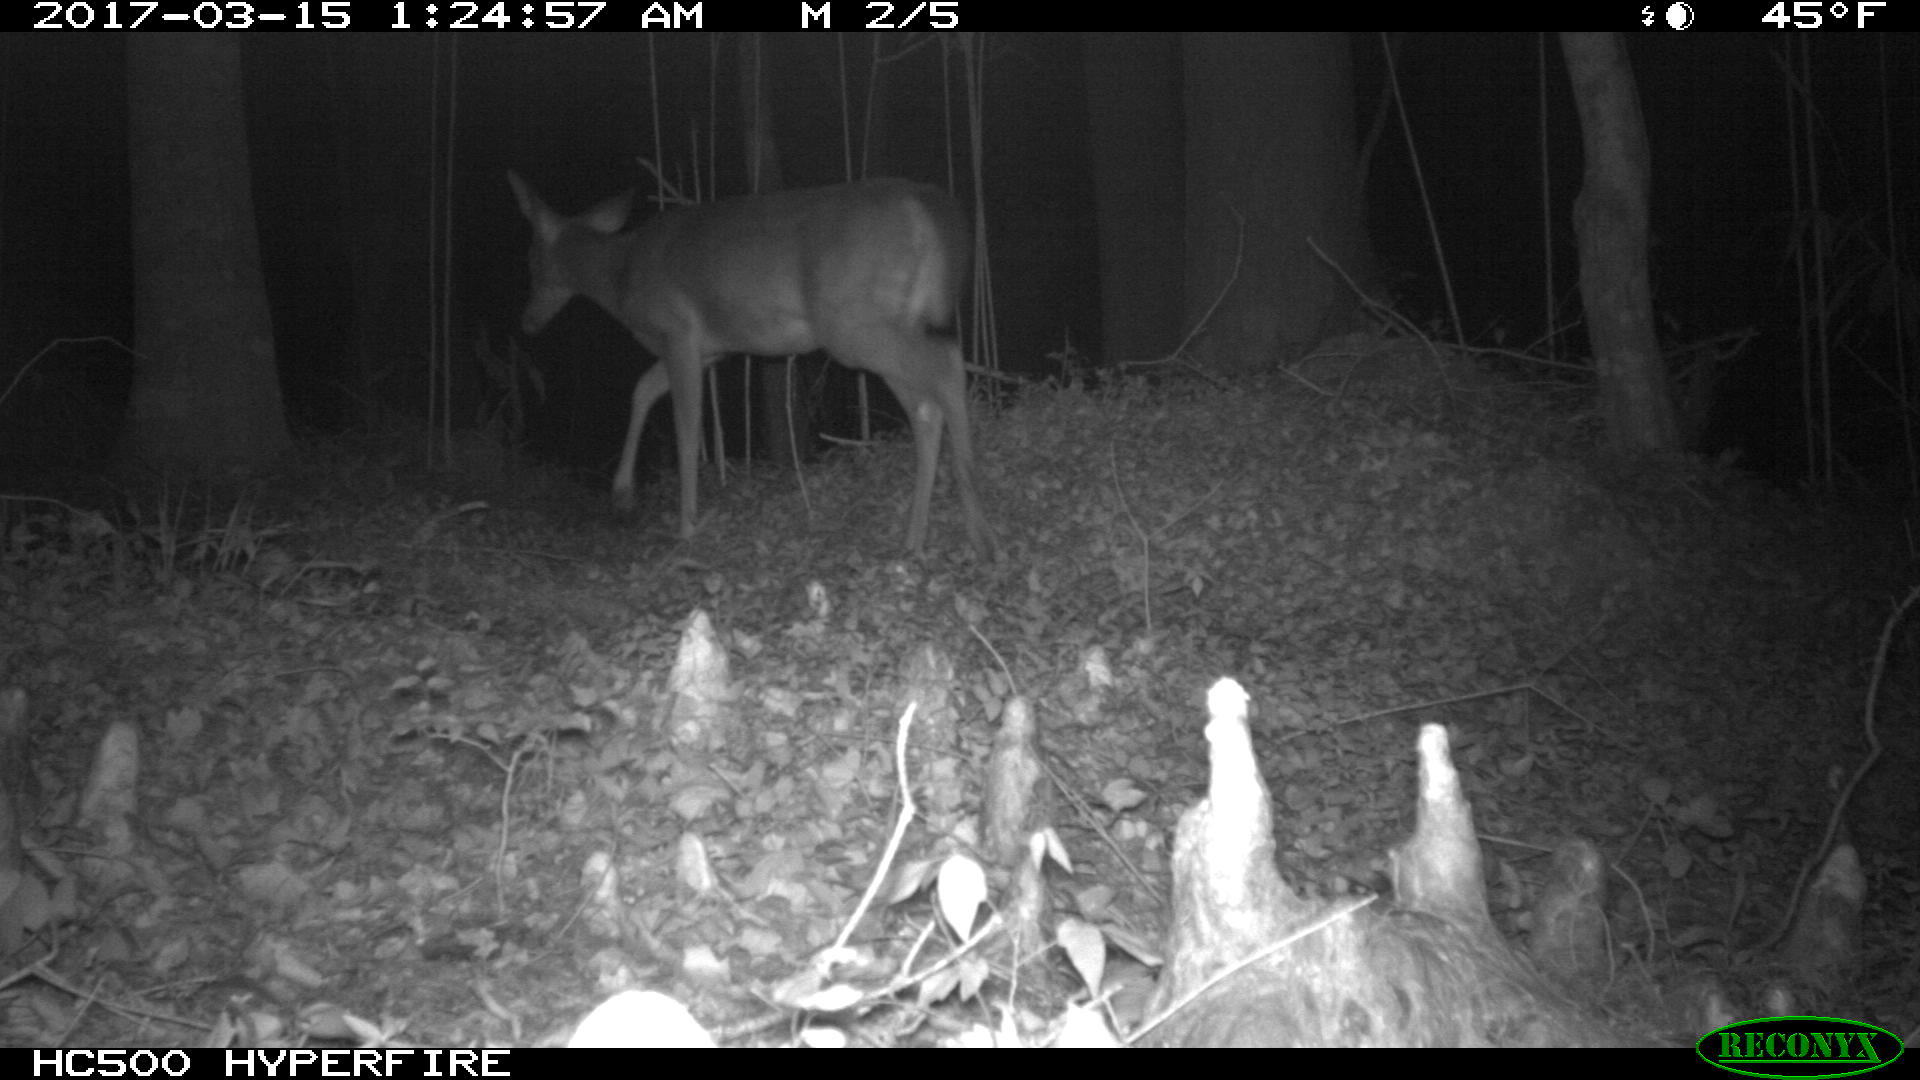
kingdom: Animalia
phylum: Chordata
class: Mammalia
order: Artiodactyla
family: Cervidae
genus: Odocoileus
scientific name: Odocoileus virginianus
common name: White-tailed deer
